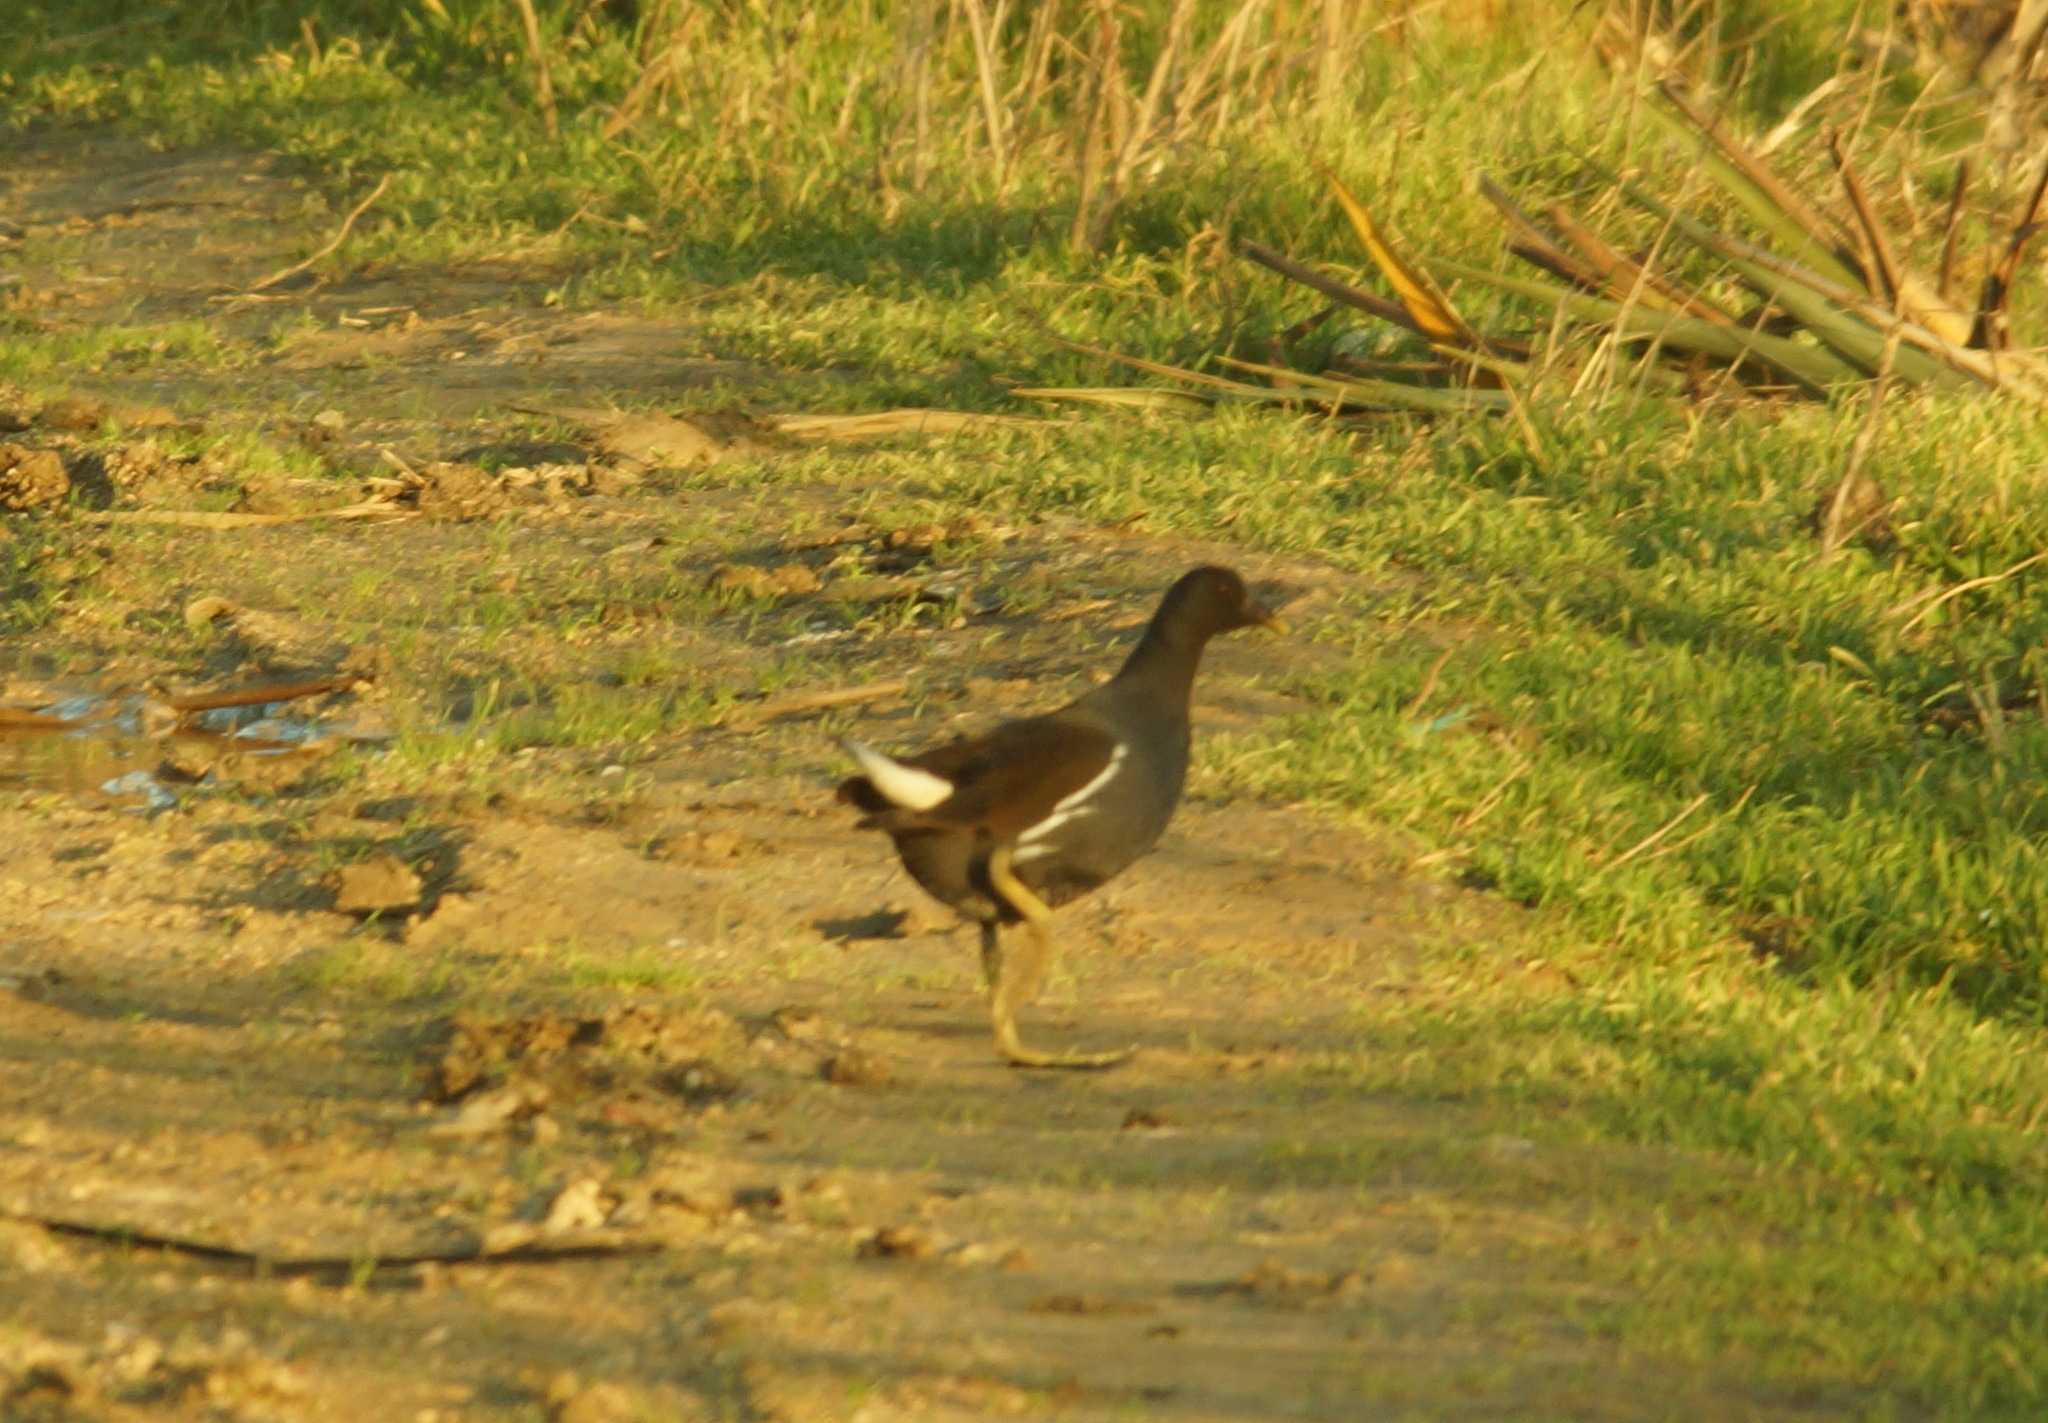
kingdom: Animalia
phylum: Chordata
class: Aves
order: Gruiformes
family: Rallidae
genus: Gallinula
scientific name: Gallinula chloropus
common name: Common moorhen
